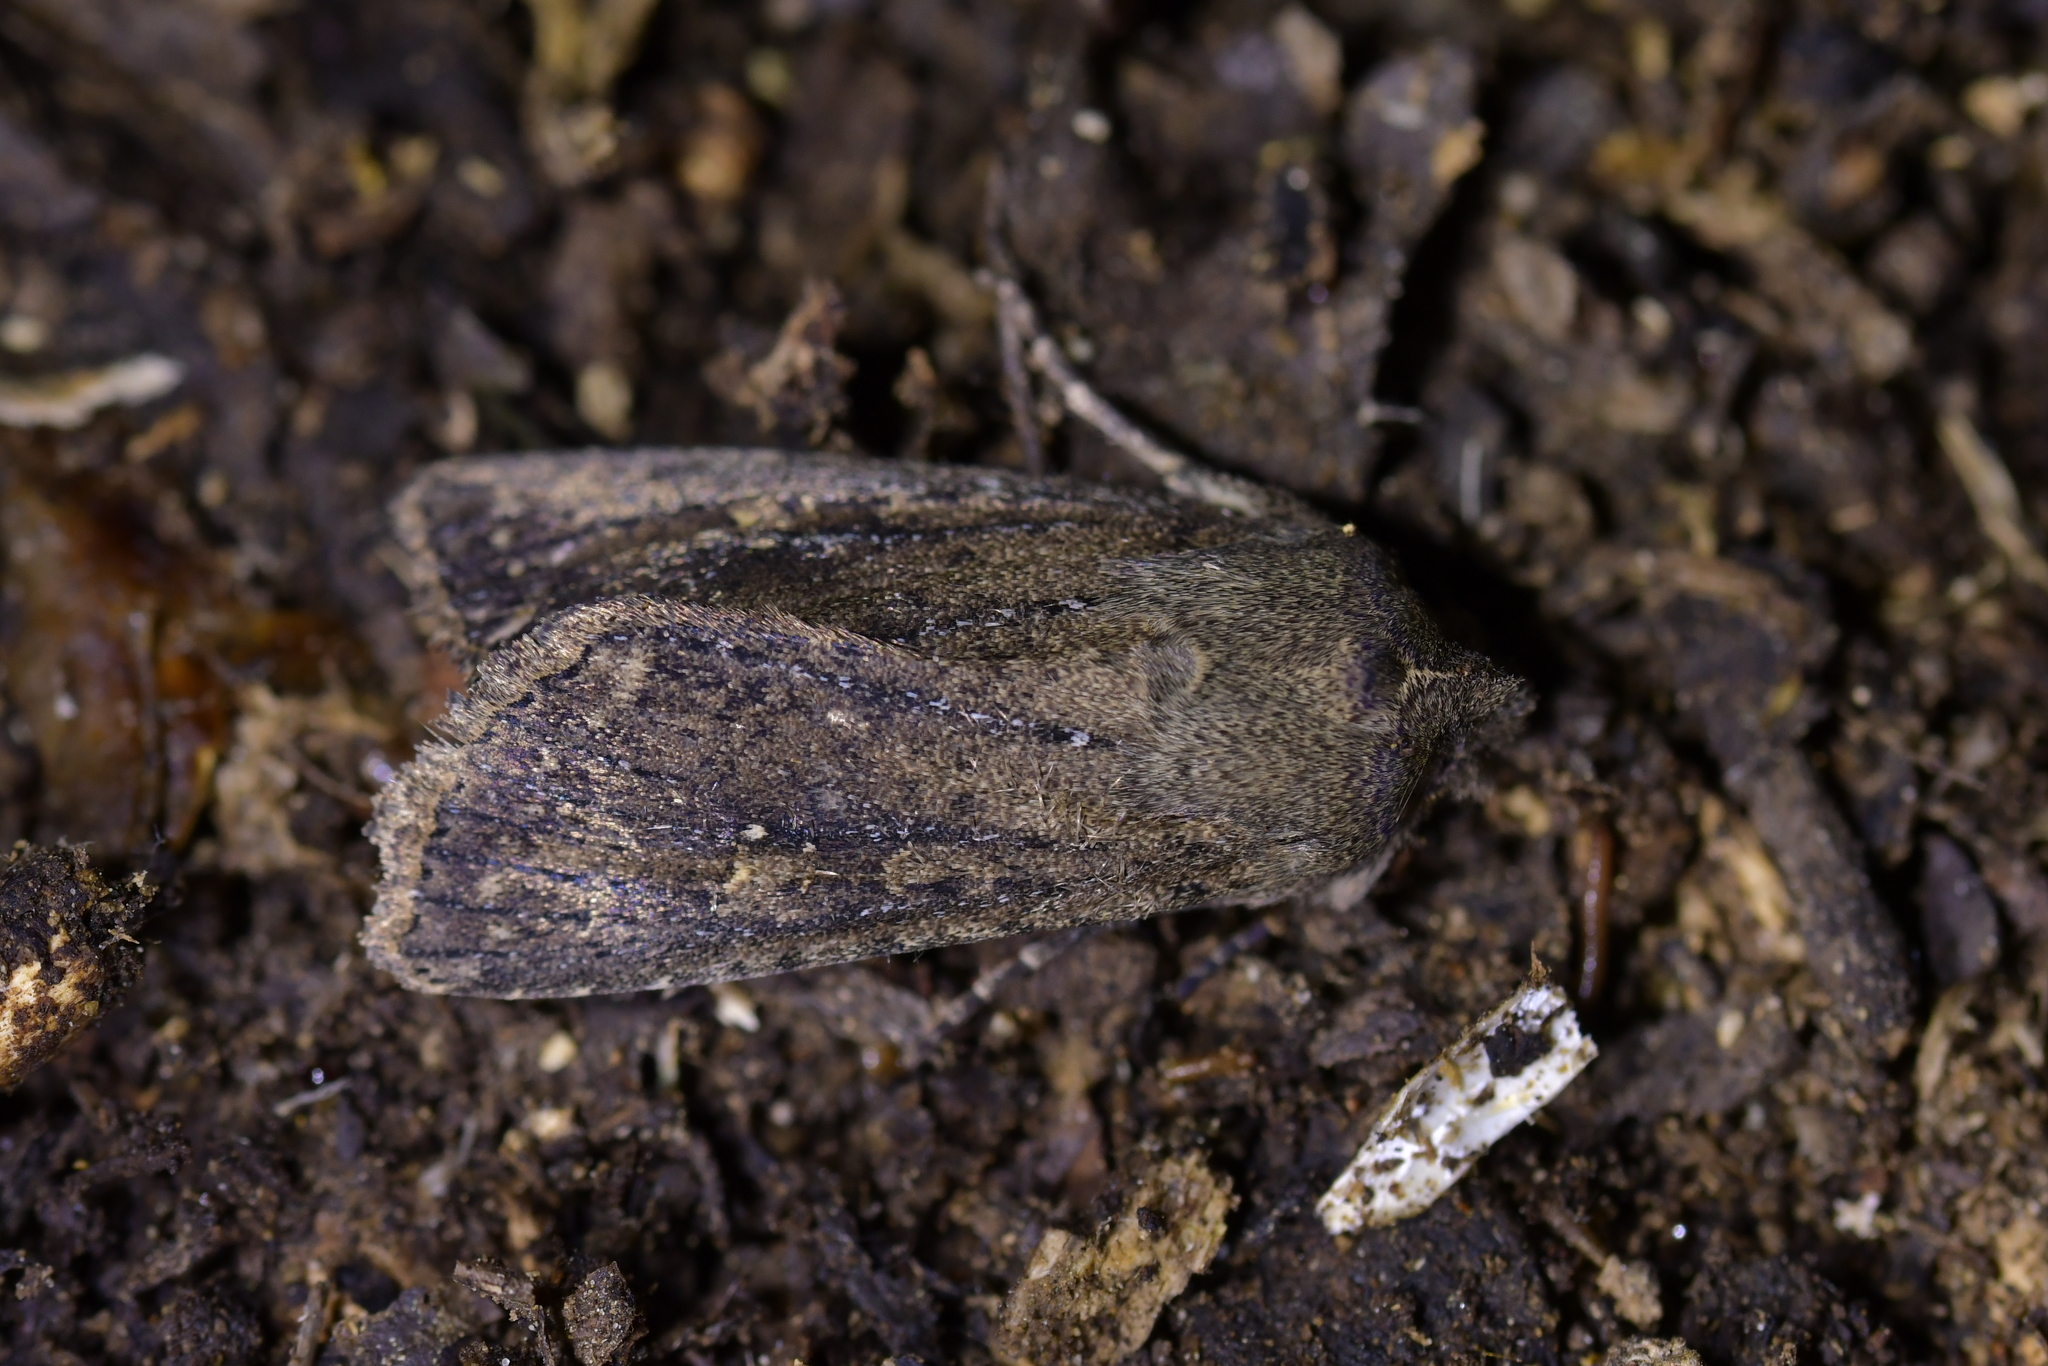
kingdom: Animalia
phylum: Arthropoda
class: Insecta
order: Lepidoptera
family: Noctuidae
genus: Physetica
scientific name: Physetica
